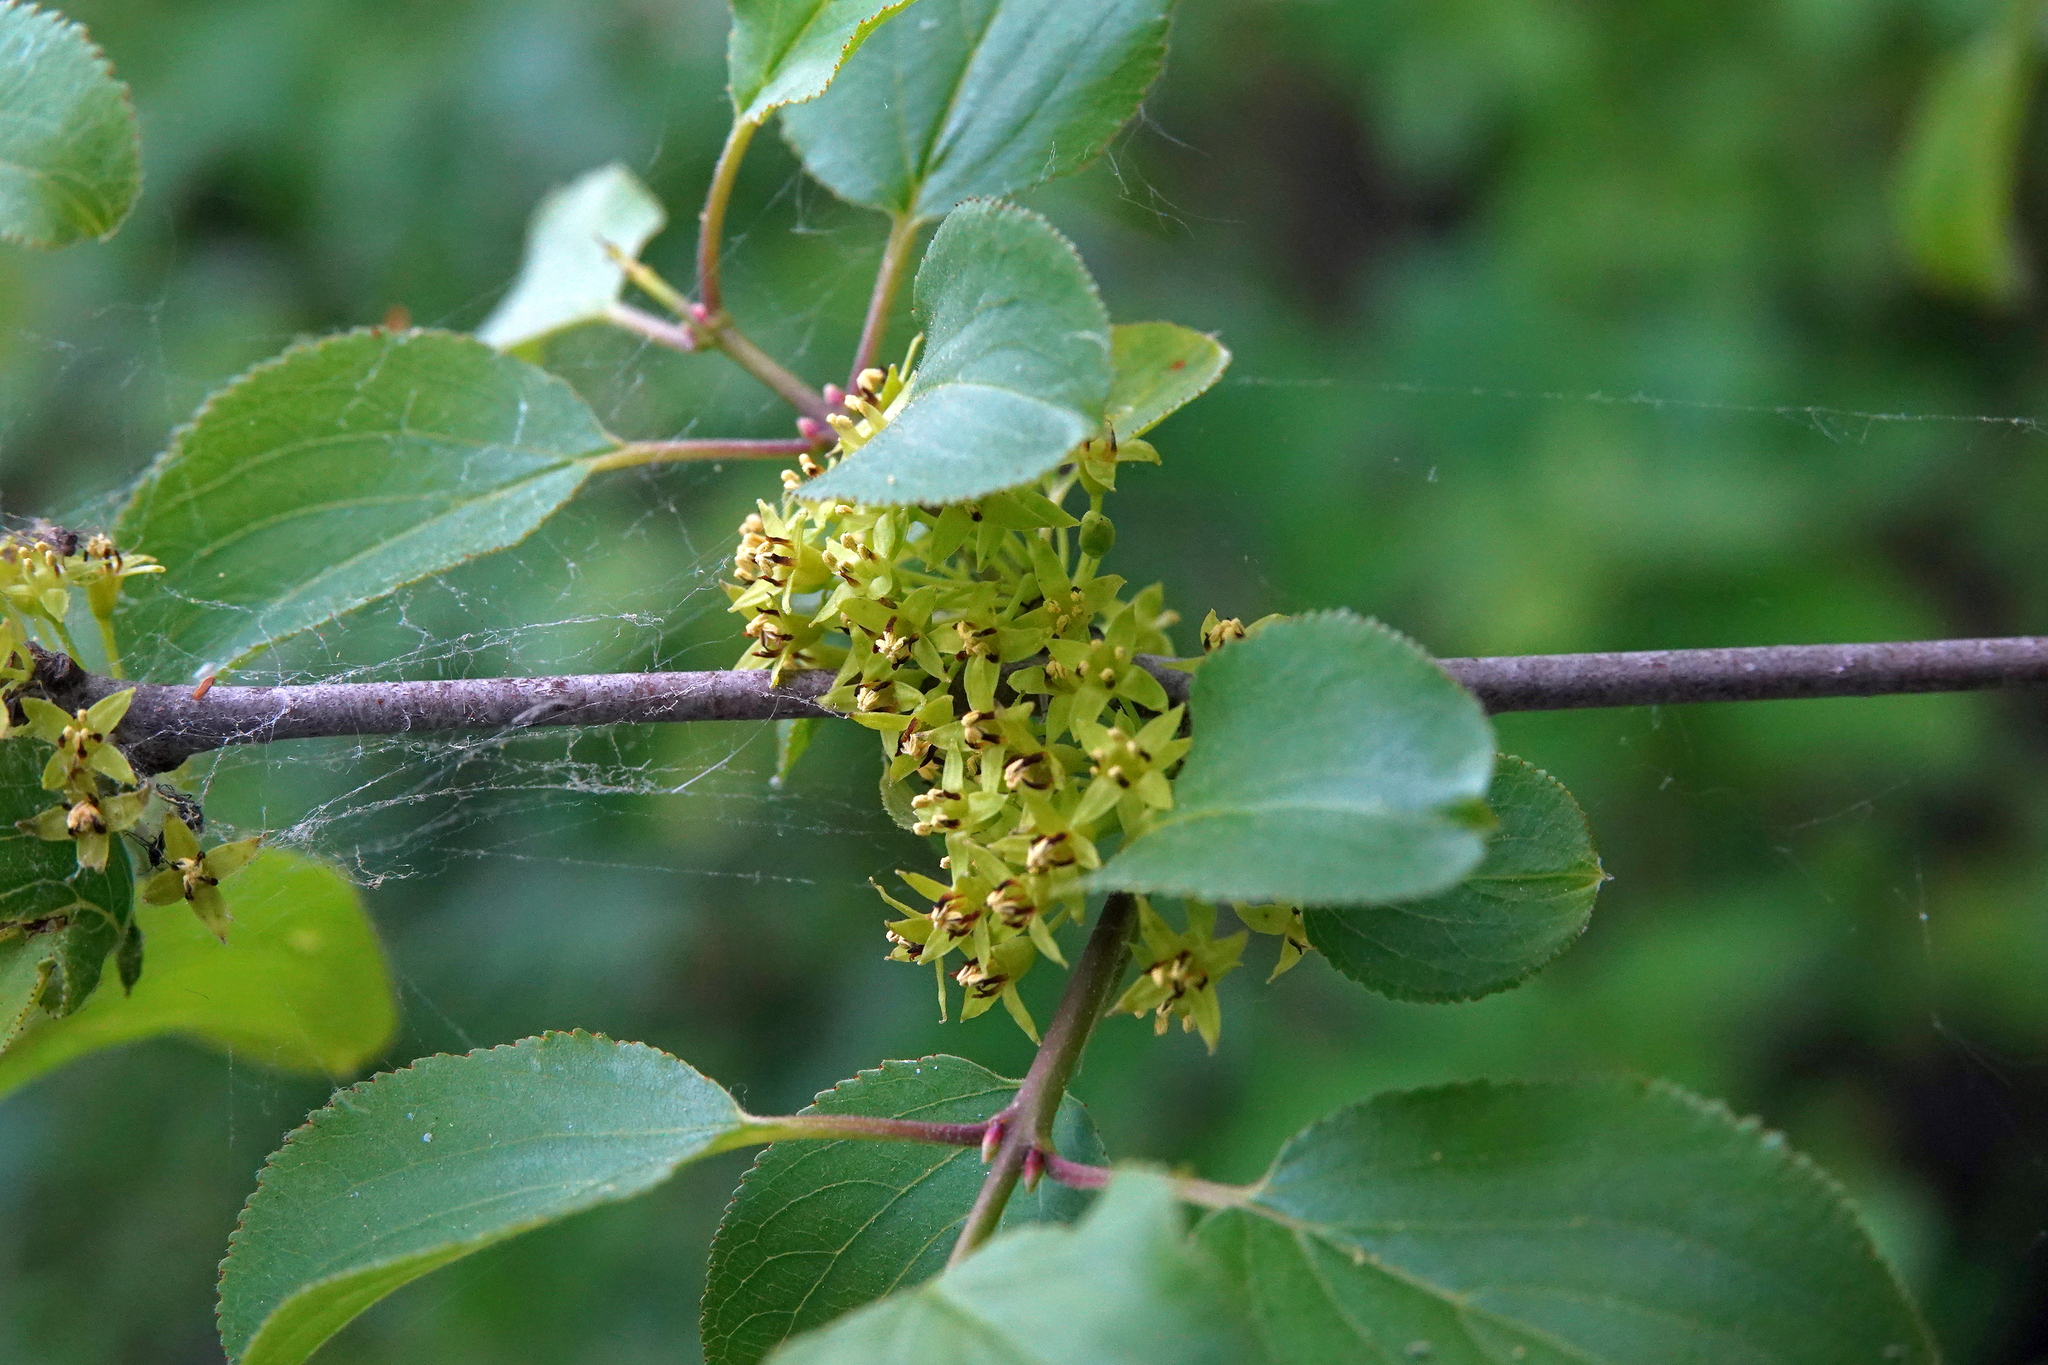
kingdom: Plantae
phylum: Tracheophyta
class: Magnoliopsida
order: Rosales
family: Rhamnaceae
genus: Rhamnus
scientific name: Rhamnus cathartica
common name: Common buckthorn
